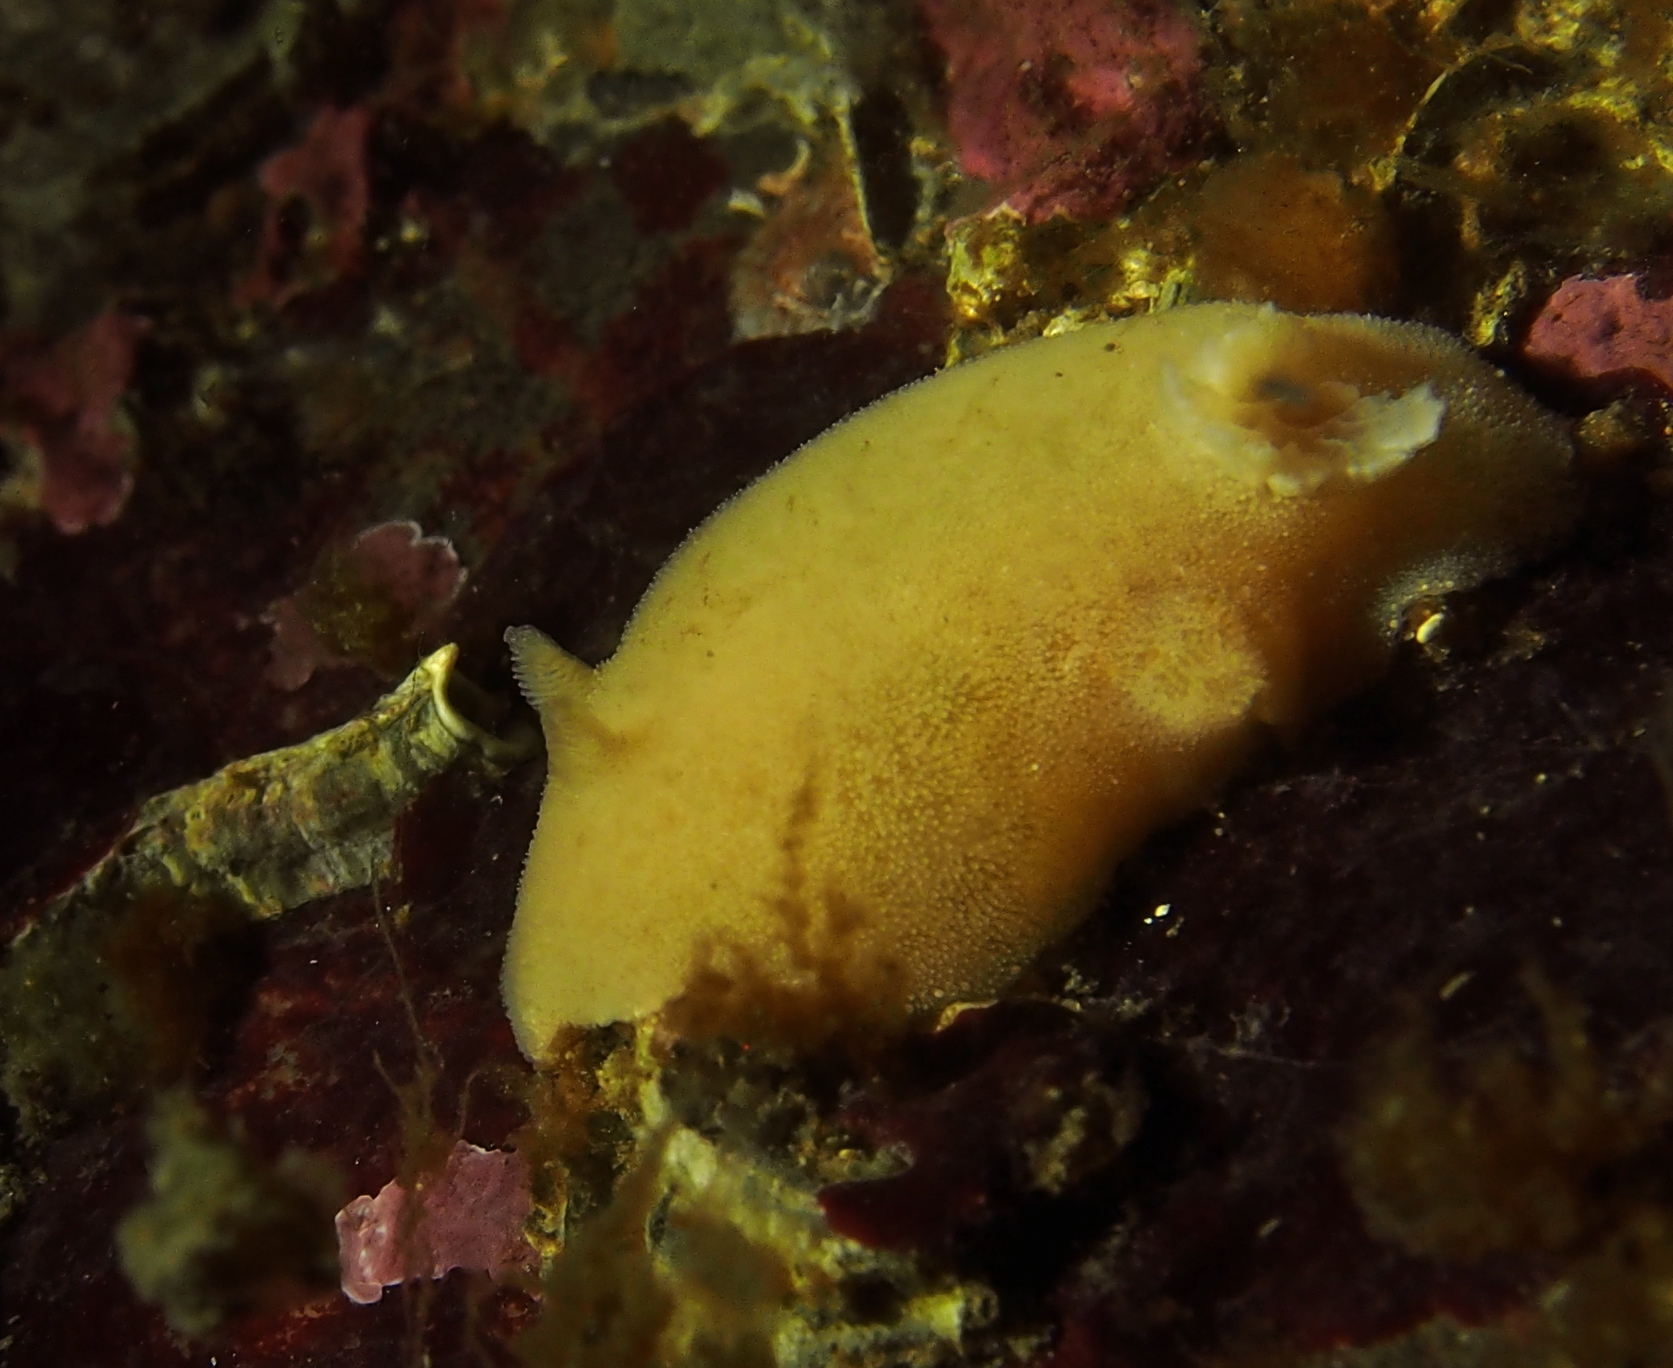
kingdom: Animalia
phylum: Mollusca
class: Gastropoda
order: Nudibranchia
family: Discodorididae
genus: Jorunna
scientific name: Jorunna tomentosa
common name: Grey sea slug
